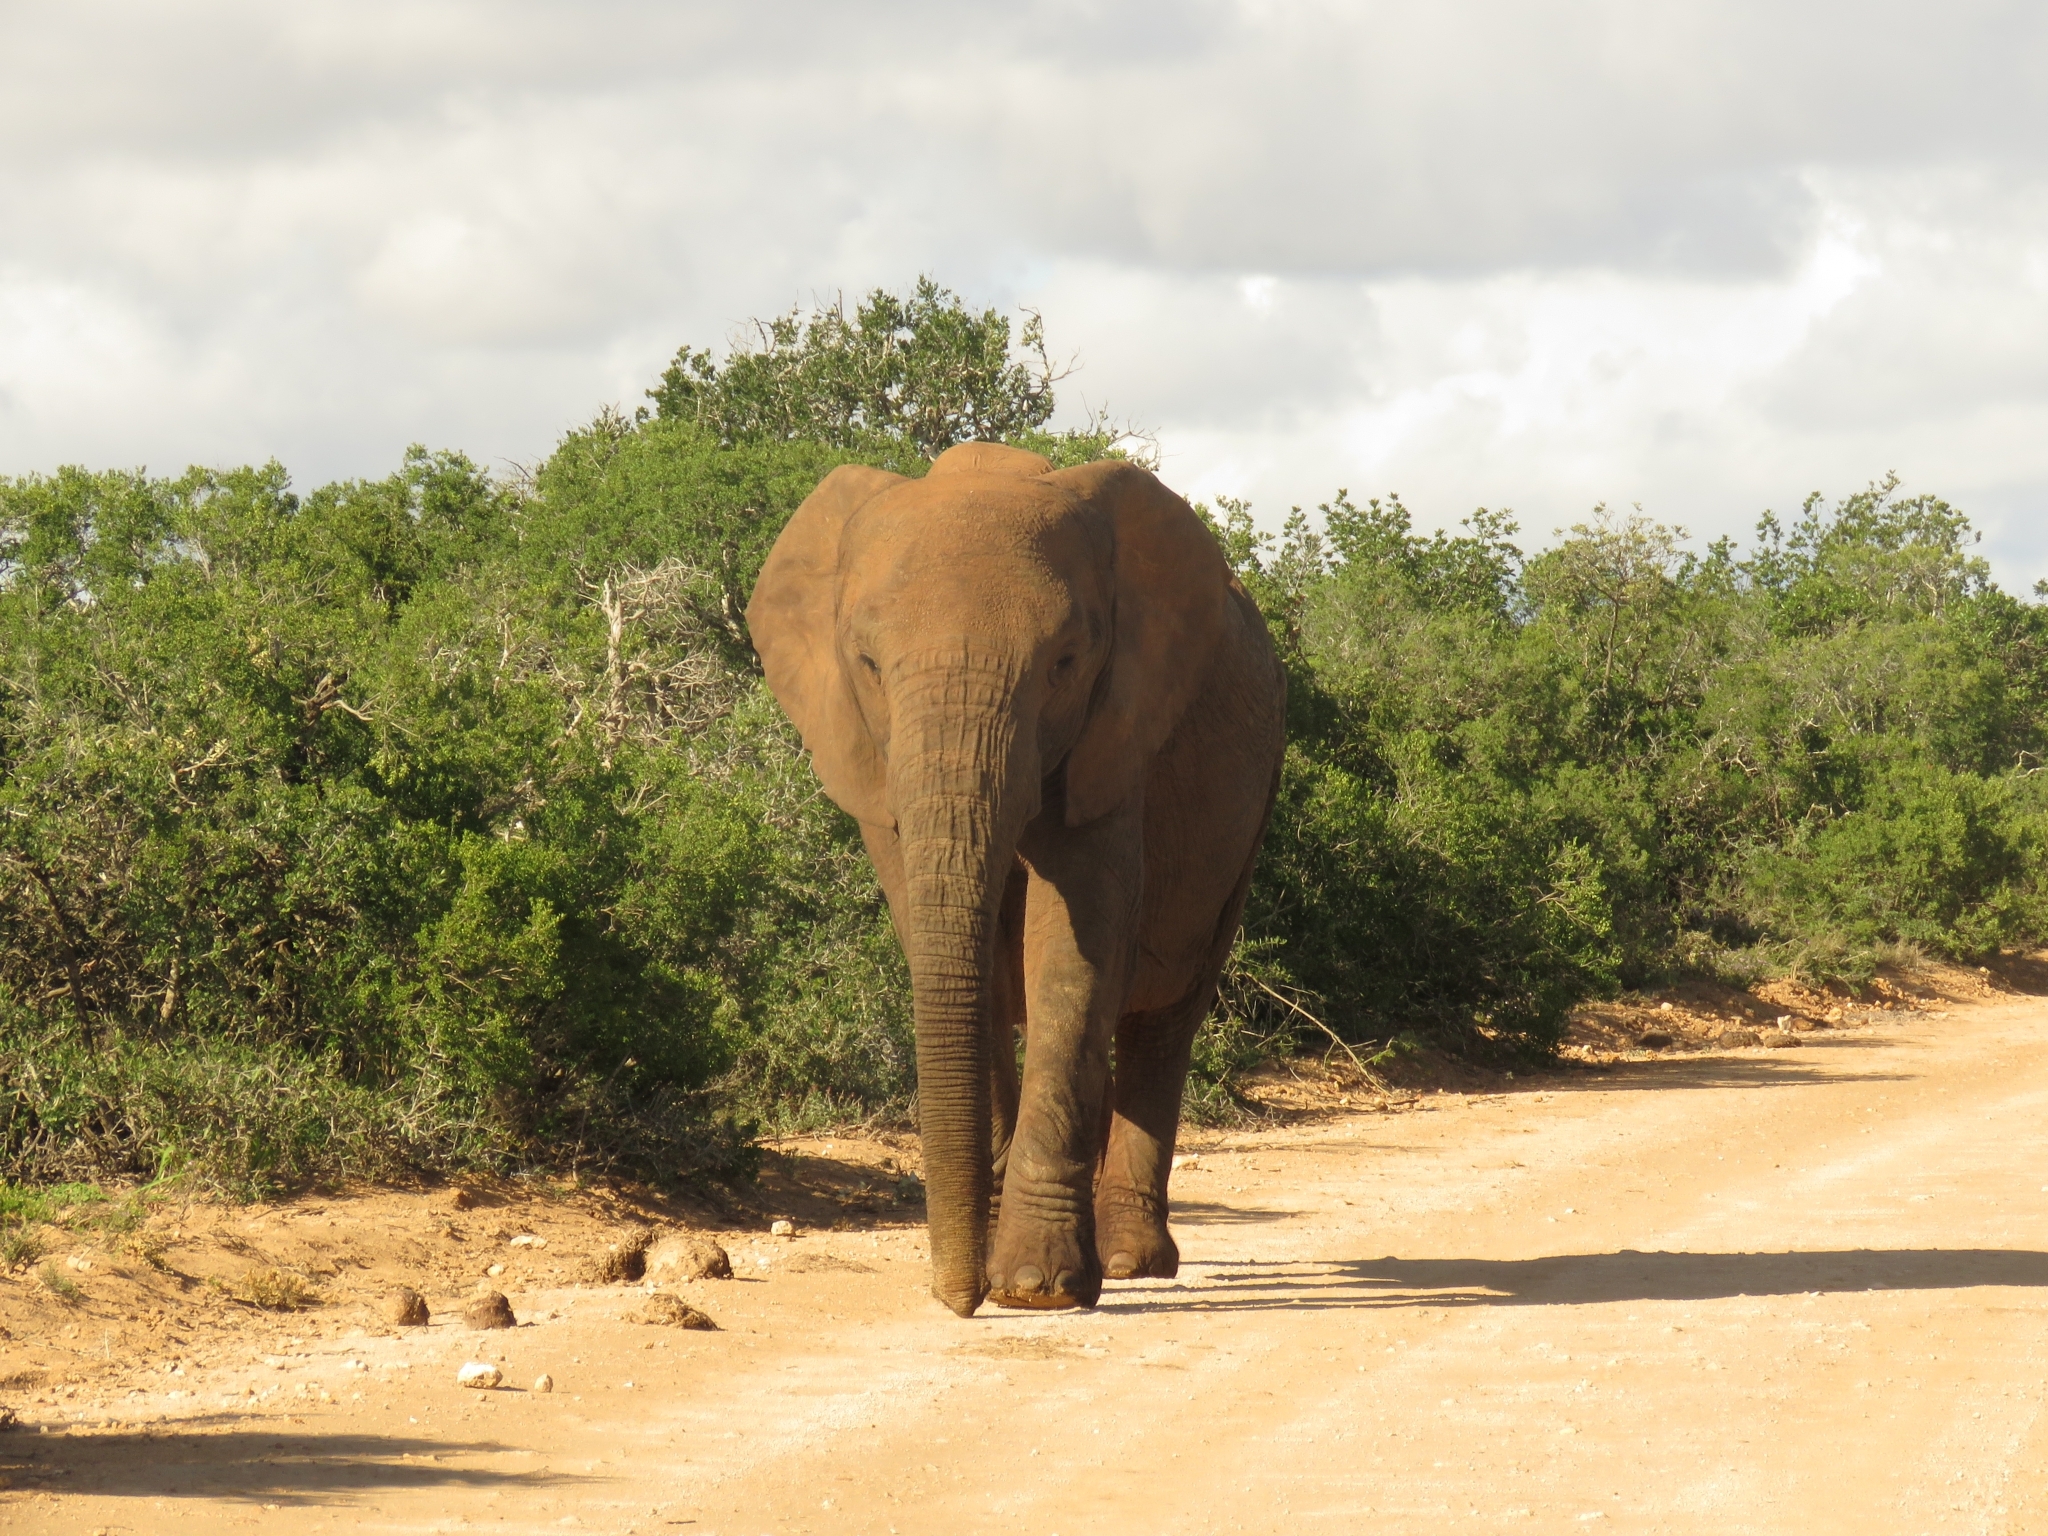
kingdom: Animalia
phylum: Chordata
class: Mammalia
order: Proboscidea
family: Elephantidae
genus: Loxodonta
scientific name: Loxodonta africana
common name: African elephant
